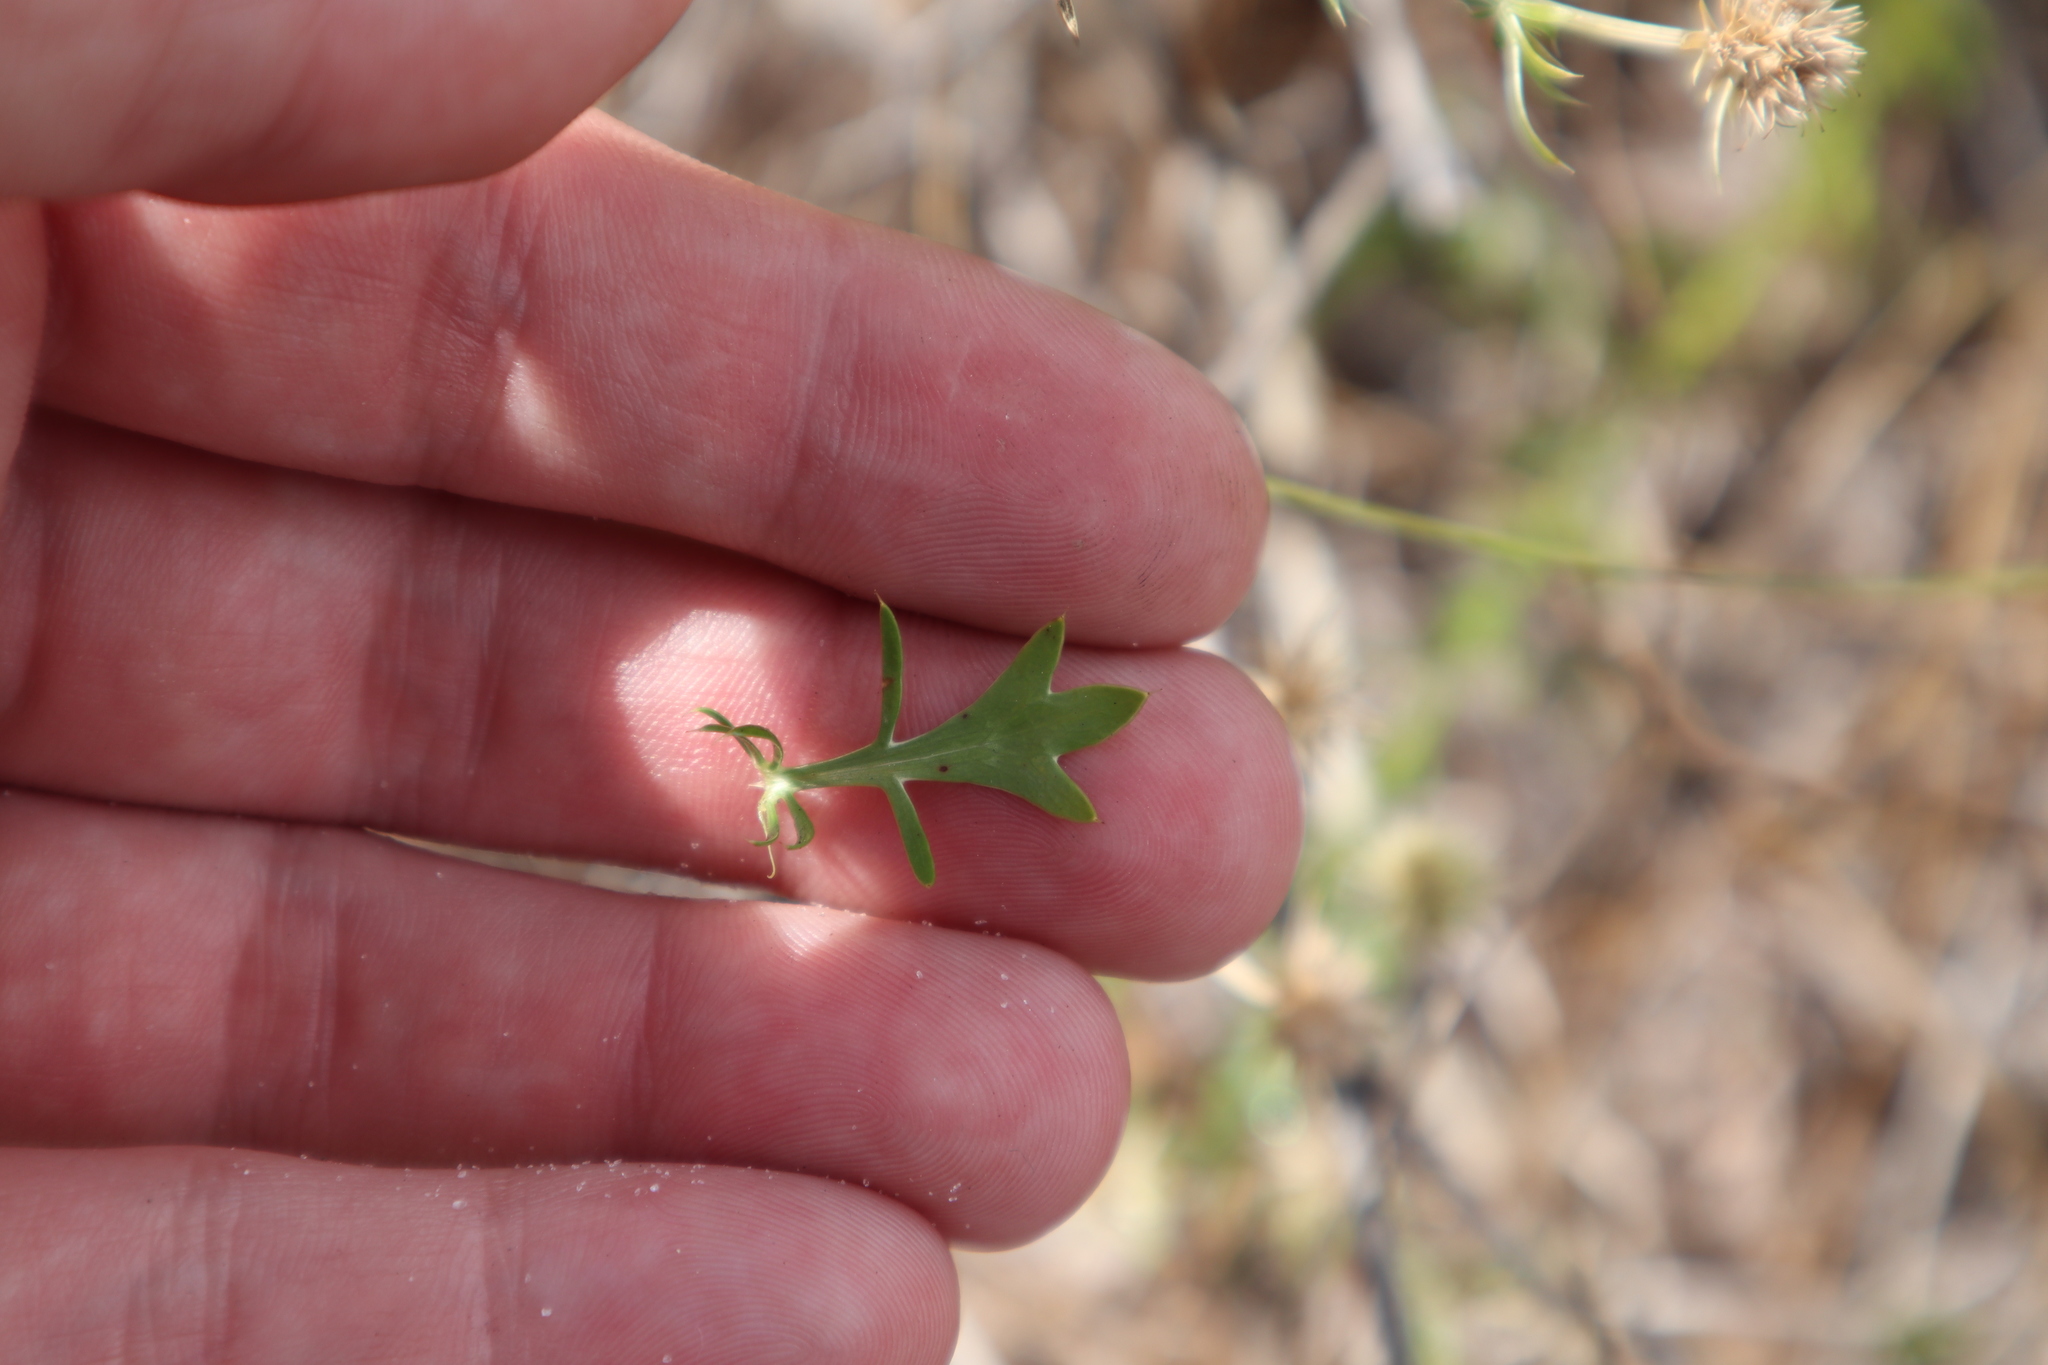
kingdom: Plantae
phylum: Tracheophyta
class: Magnoliopsida
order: Apiales
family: Apiaceae
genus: Eryngium
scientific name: Eryngium aromaticum
